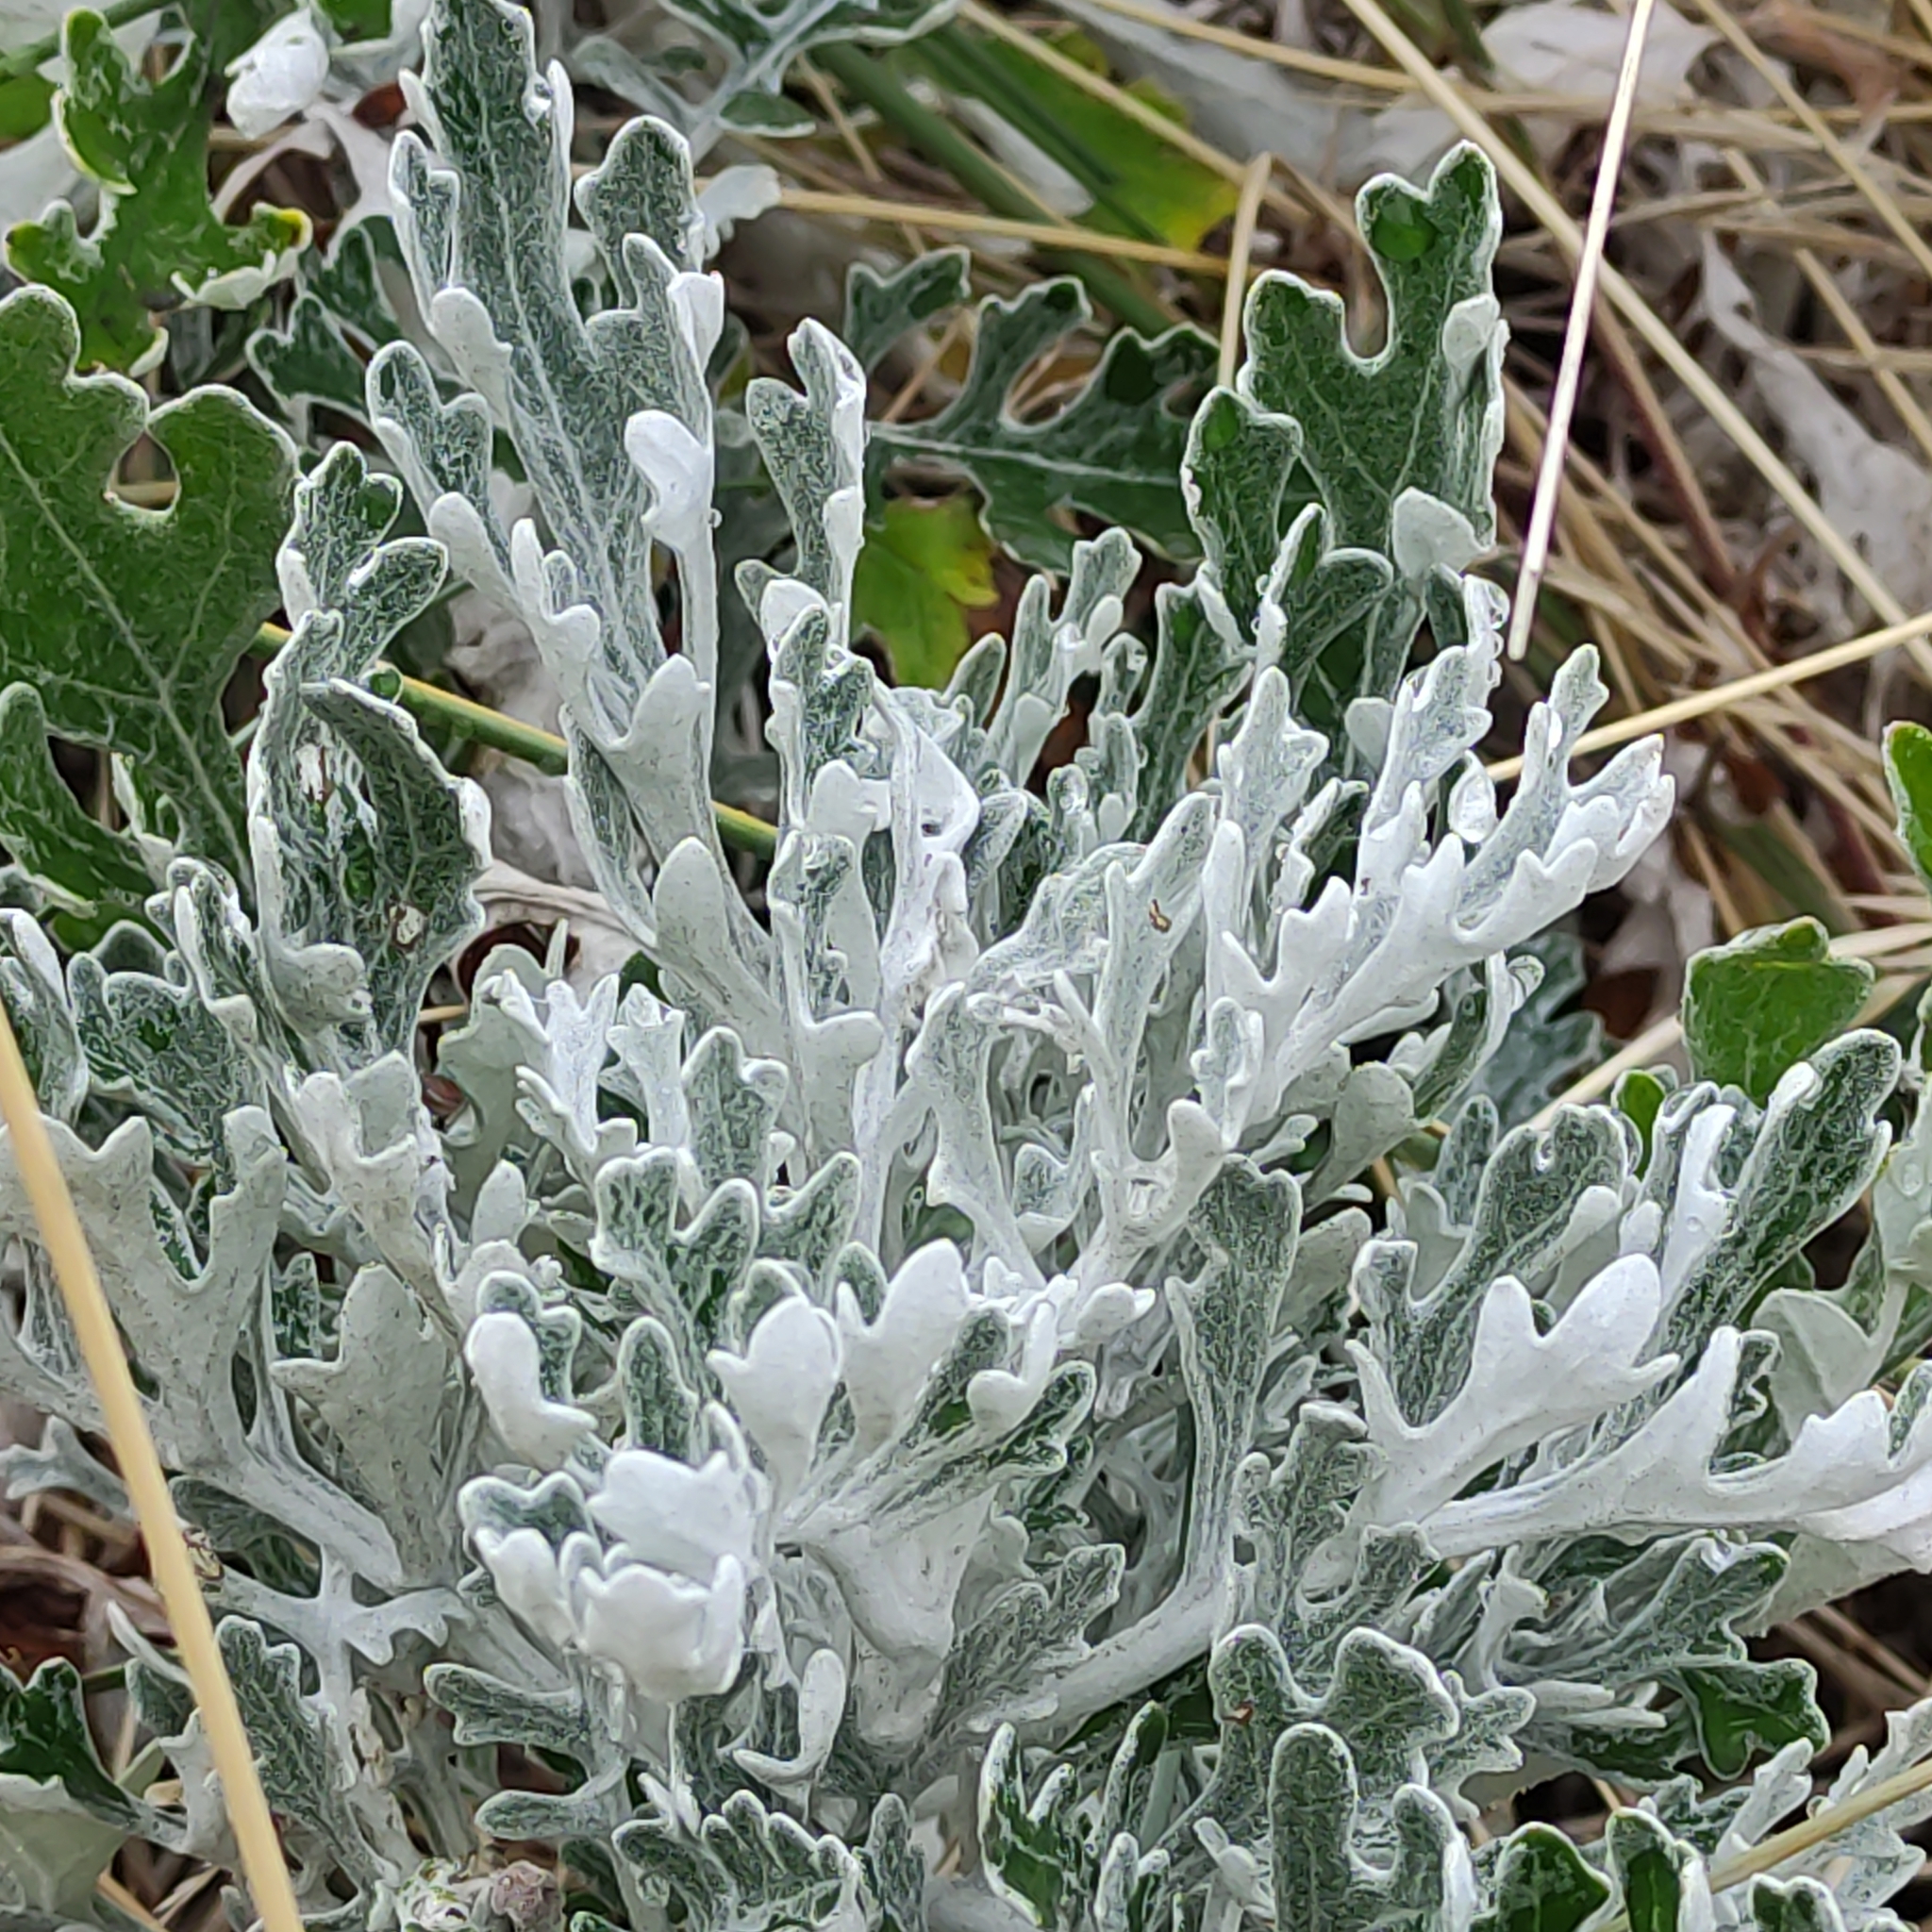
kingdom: Plantae
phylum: Tracheophyta
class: Magnoliopsida
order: Asterales
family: Asteraceae
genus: Jacobaea
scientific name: Jacobaea maritima
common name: Silver ragwort
